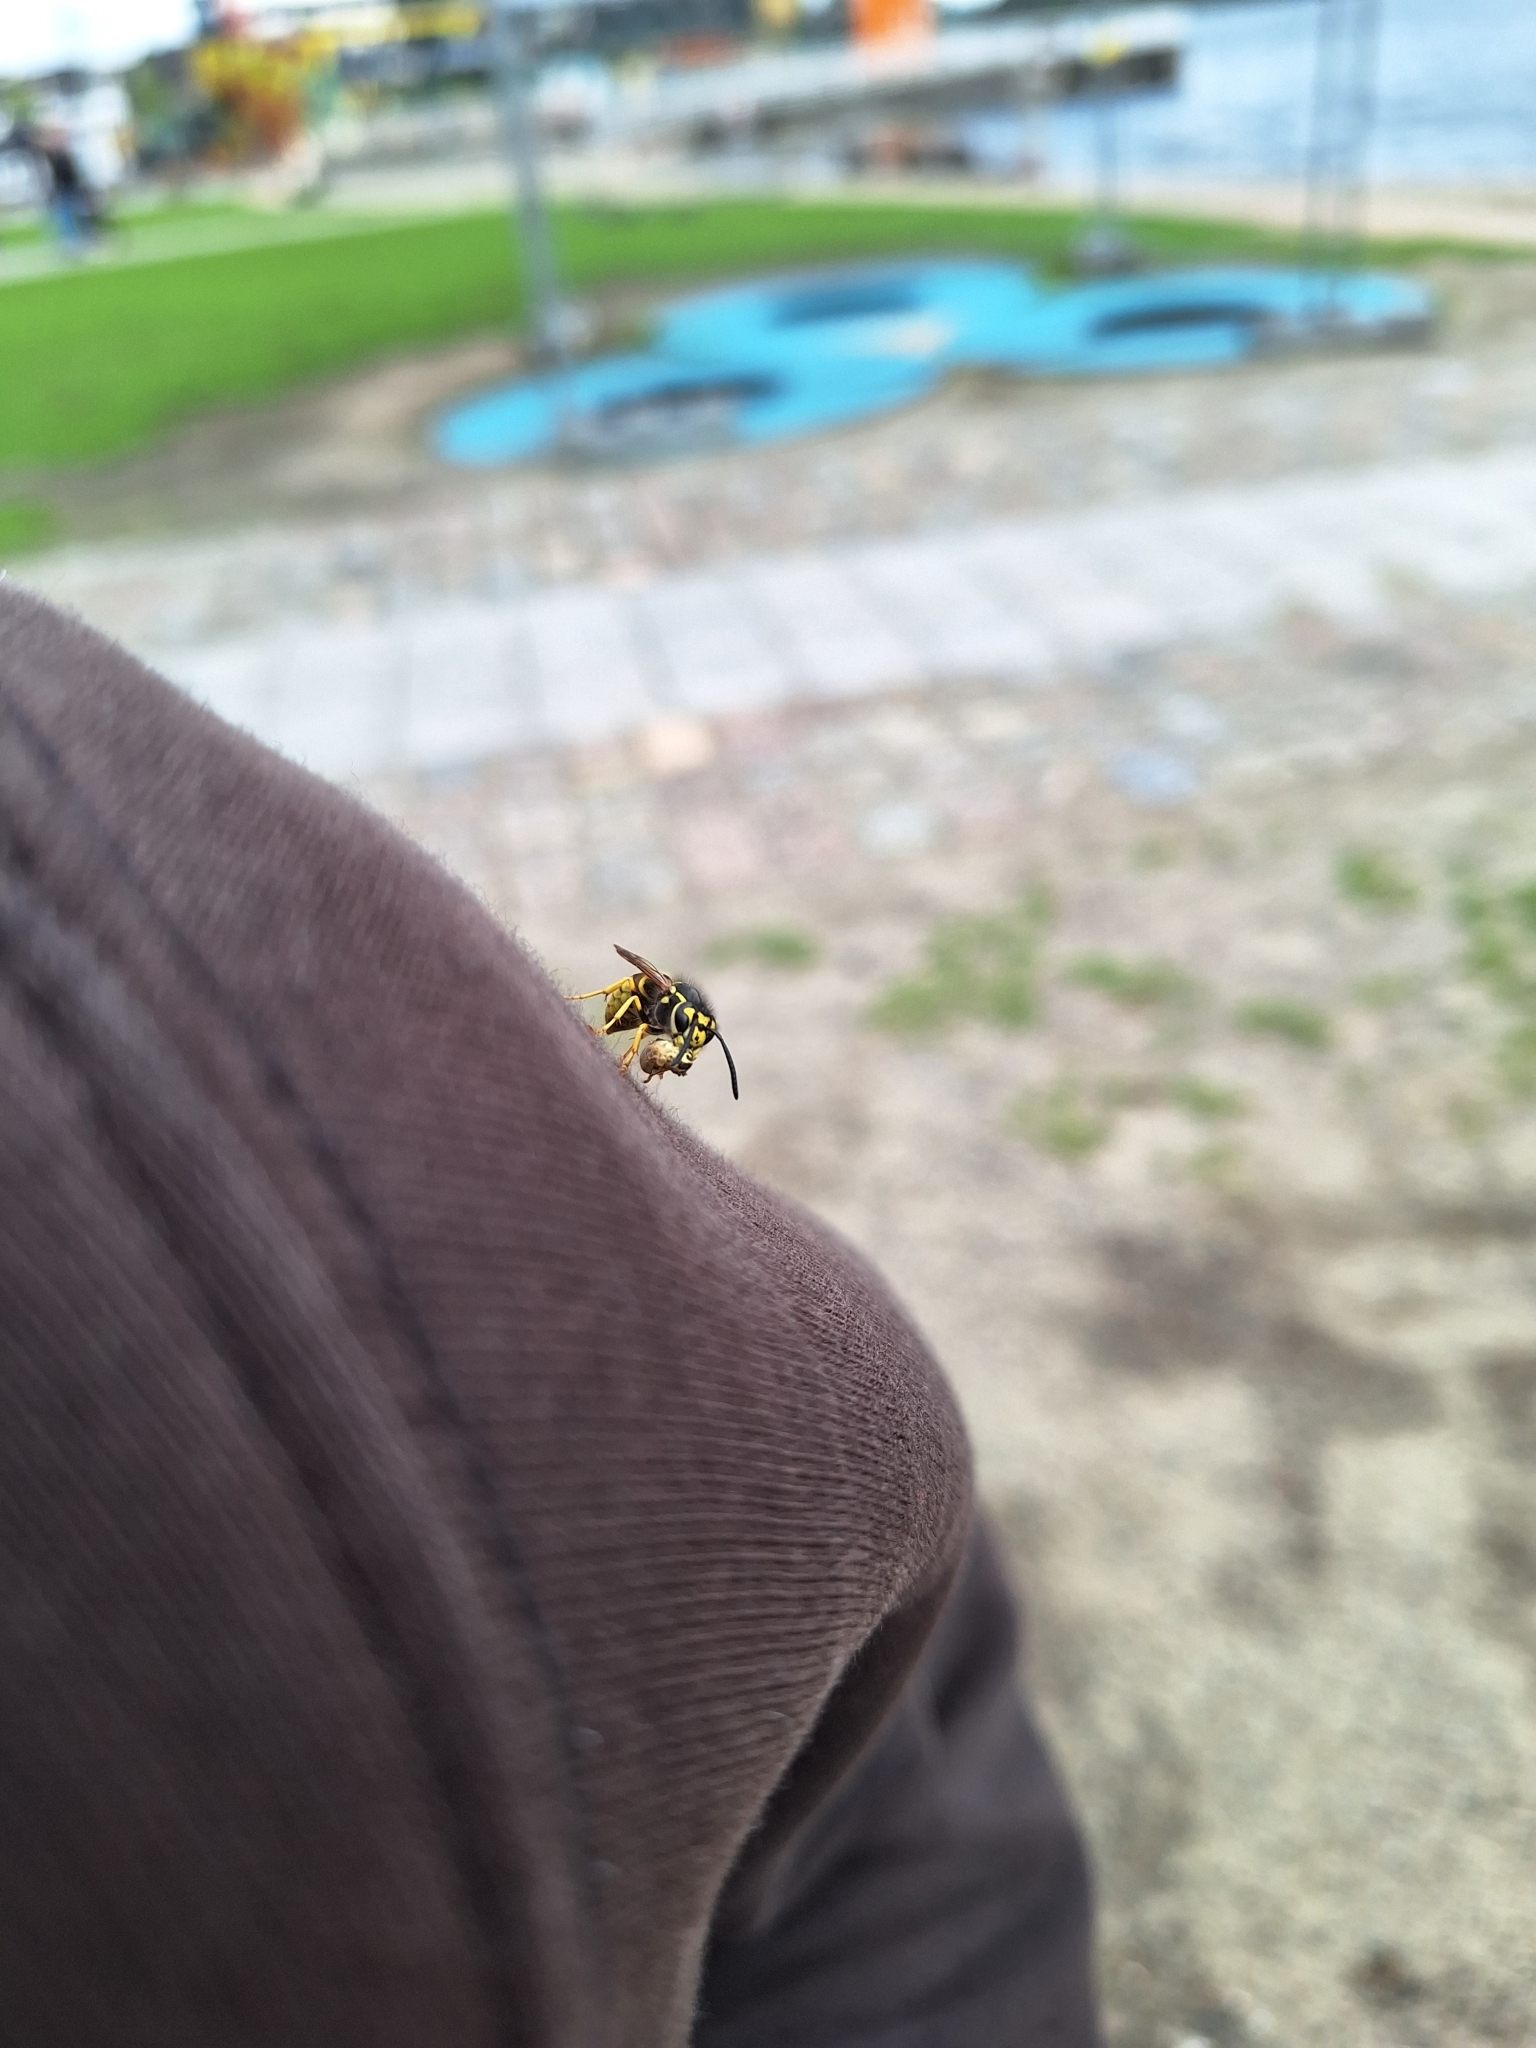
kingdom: Animalia
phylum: Arthropoda
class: Insecta
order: Hymenoptera
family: Vespidae
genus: Vespula
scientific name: Vespula germanica
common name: German wasp
